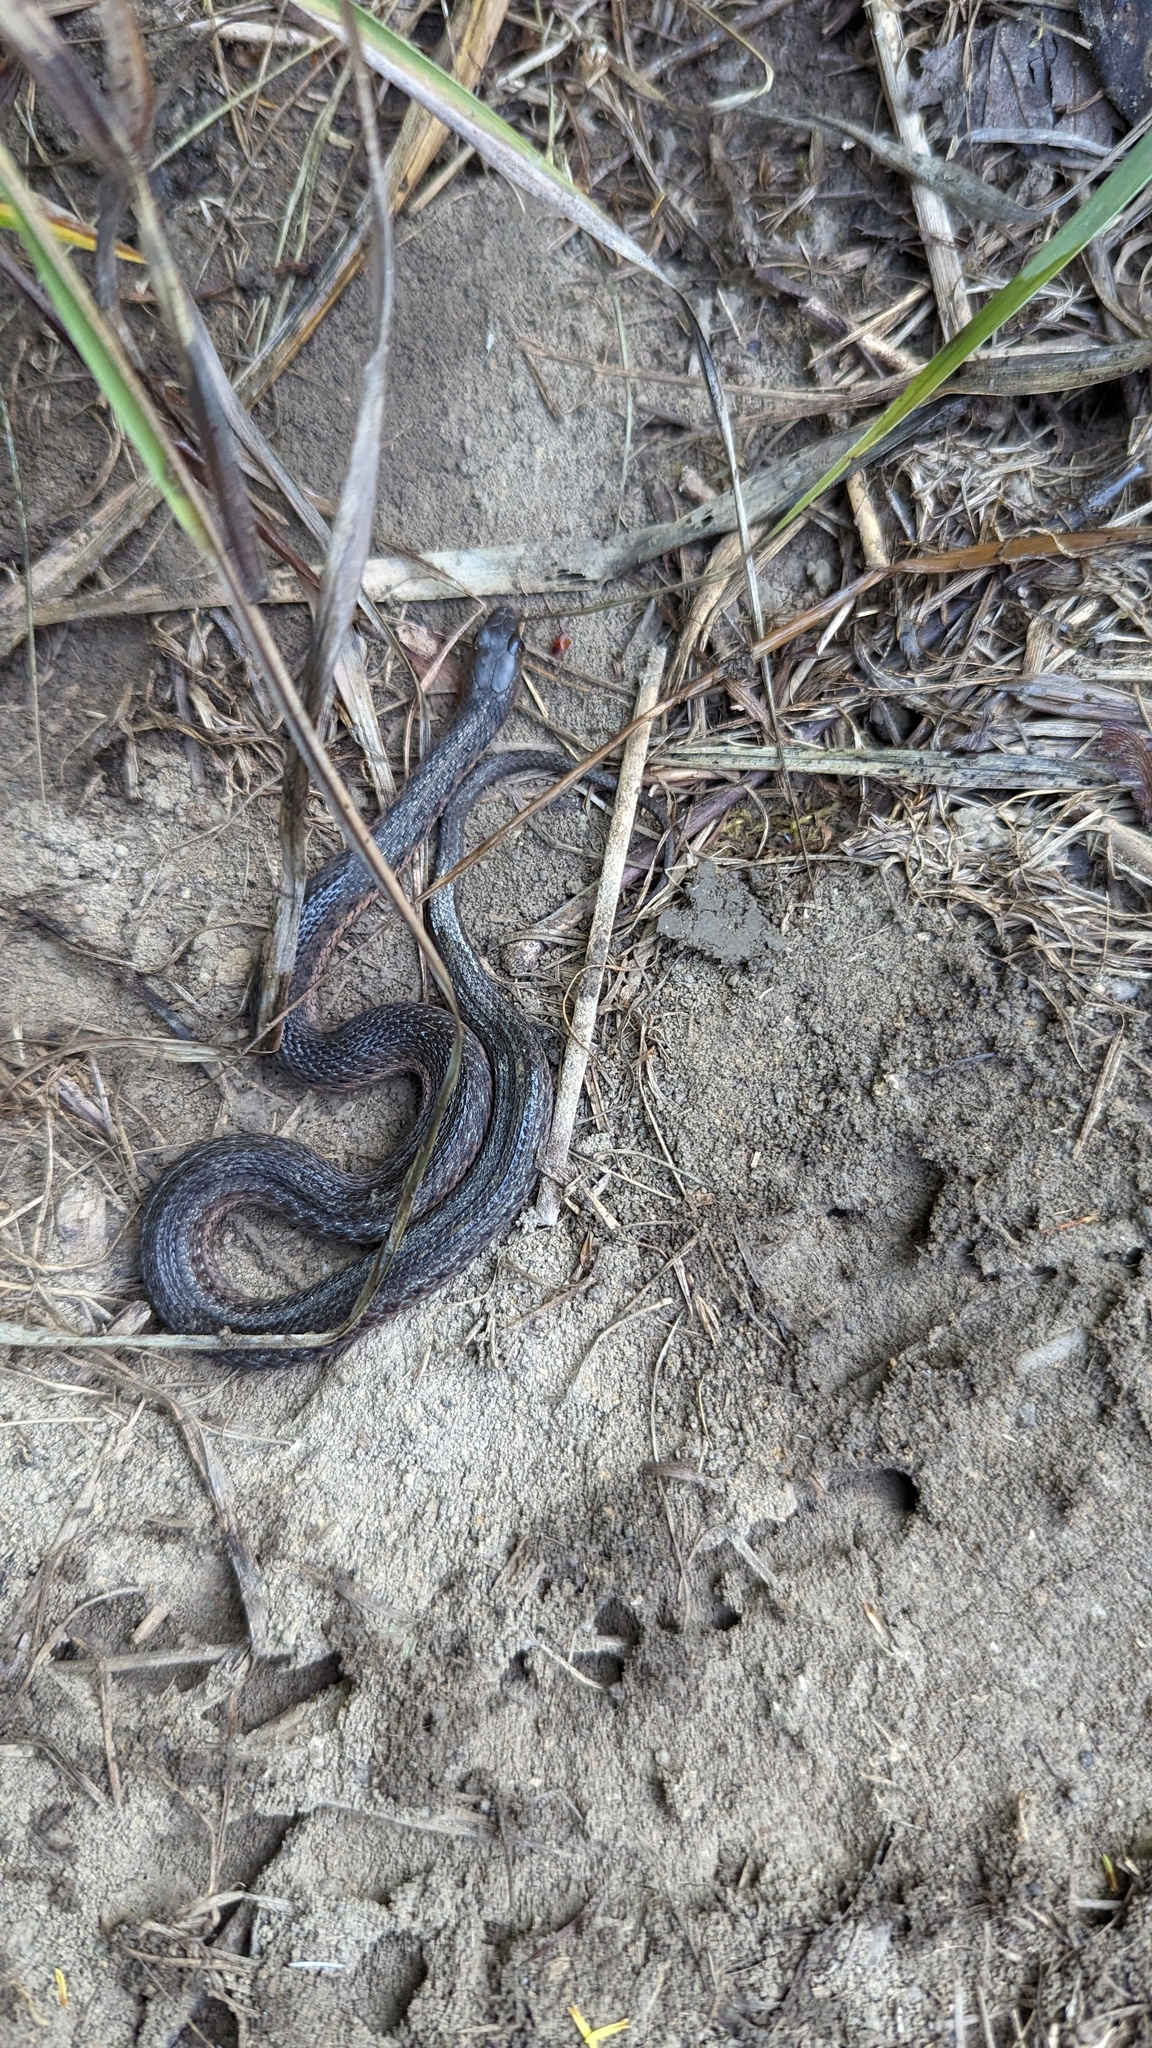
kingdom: Animalia
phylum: Chordata
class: Squamata
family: Colubridae
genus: Thamnophis
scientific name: Thamnophis sirtalis
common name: Common garter snake
